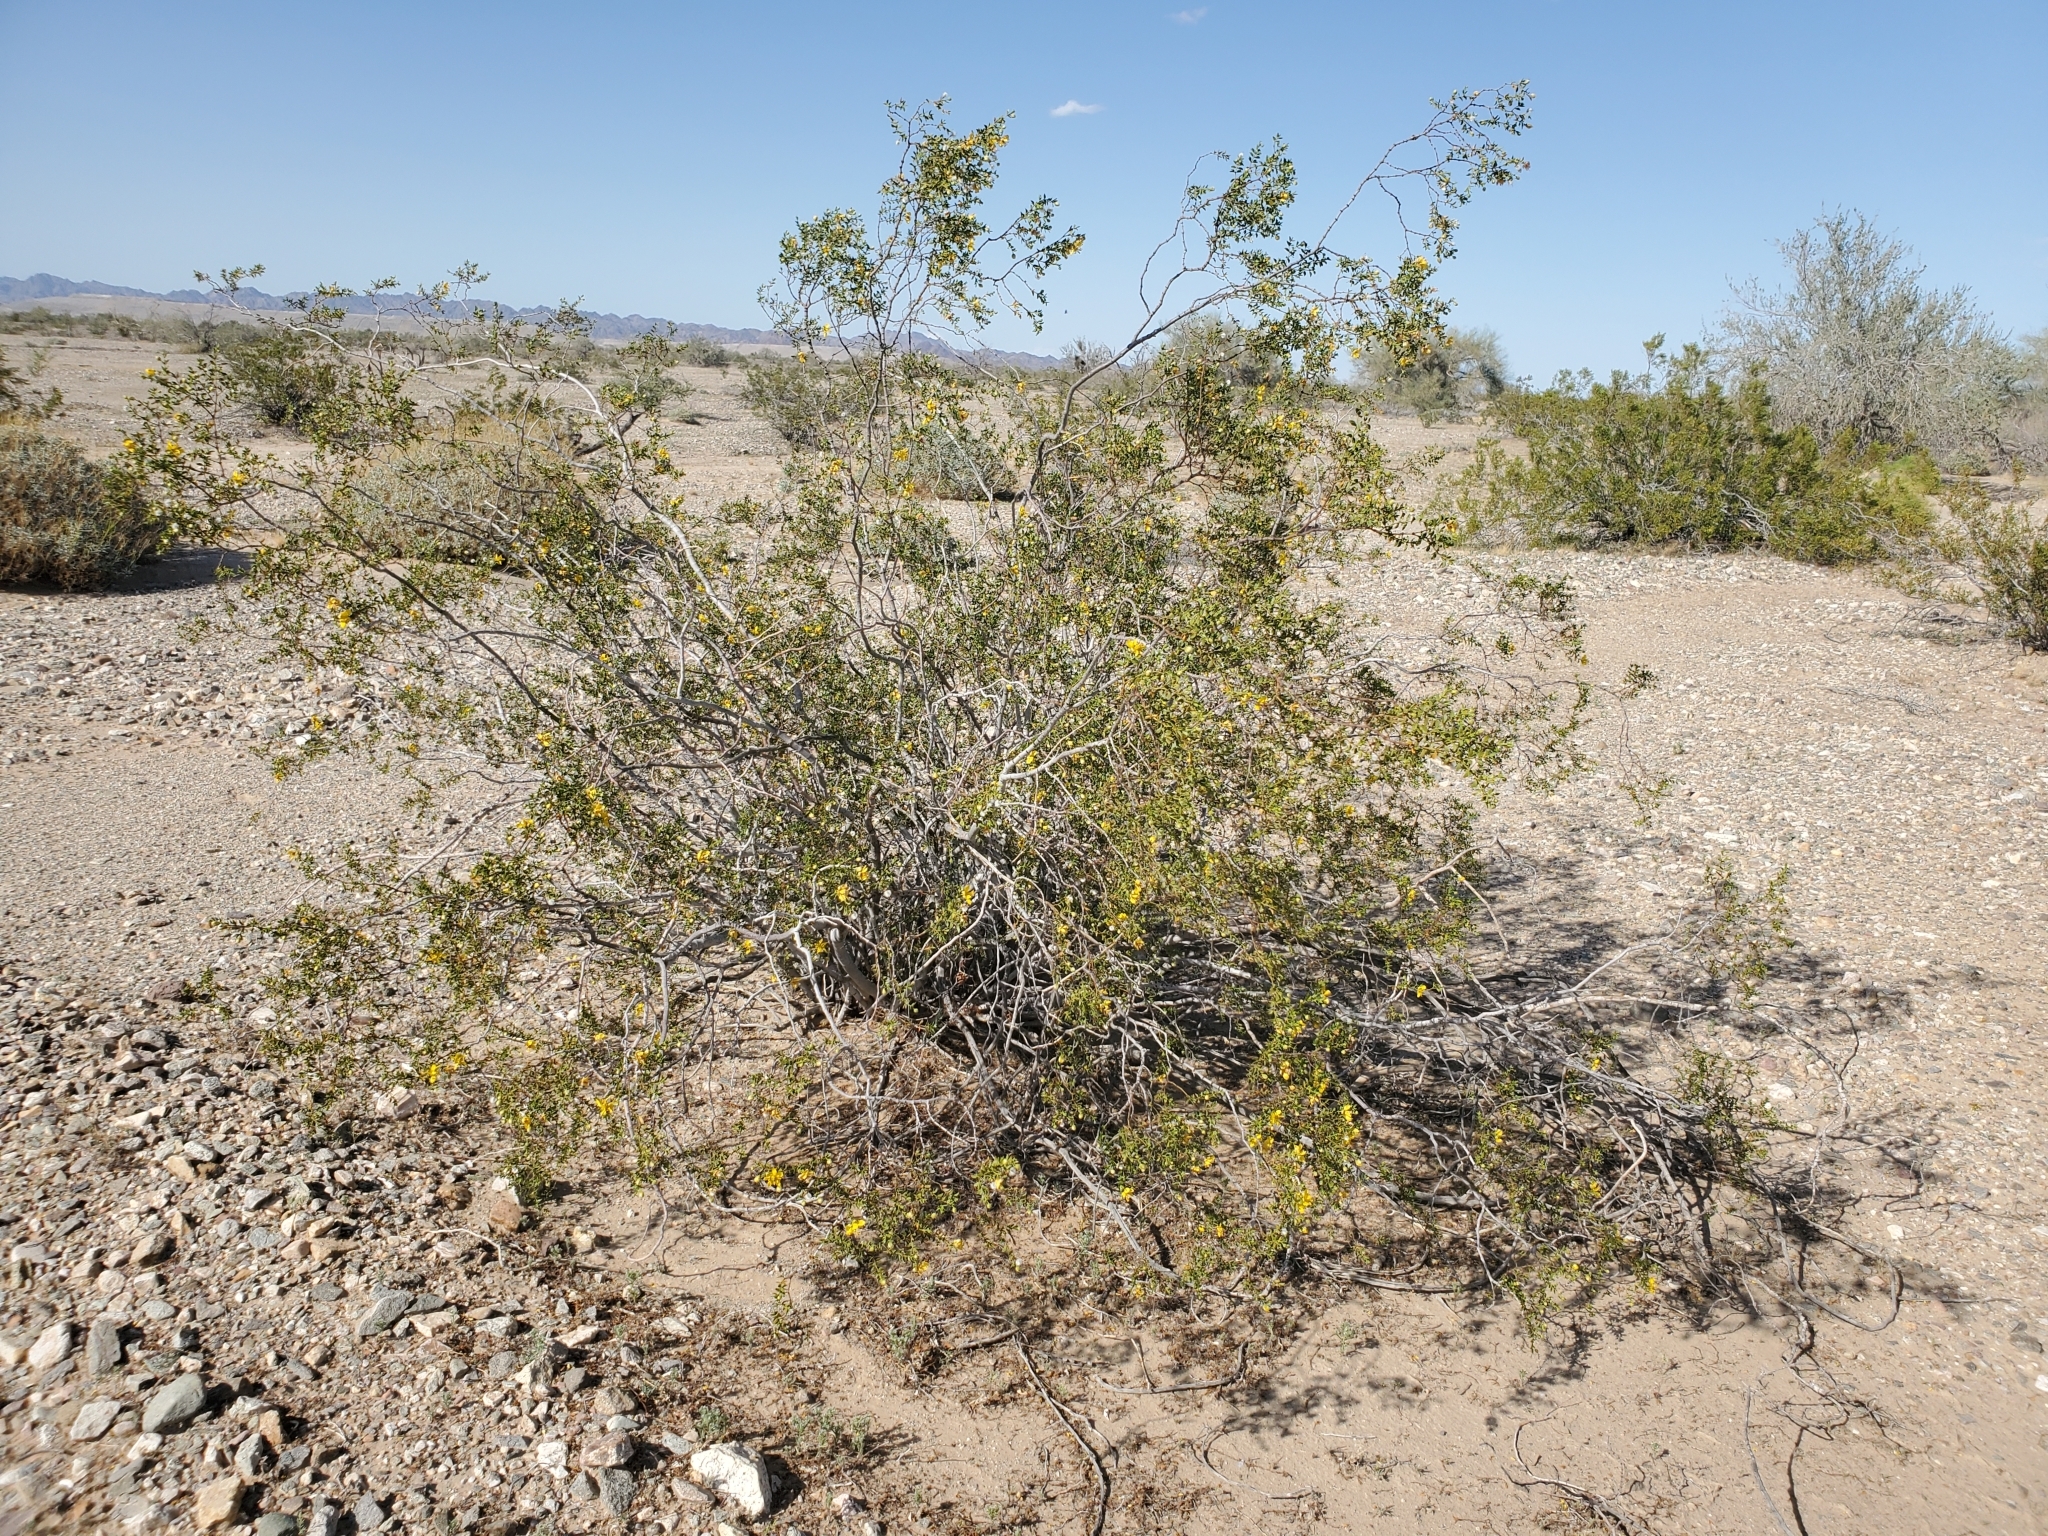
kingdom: Plantae
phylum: Tracheophyta
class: Magnoliopsida
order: Zygophyllales
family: Zygophyllaceae
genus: Larrea
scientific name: Larrea tridentata
